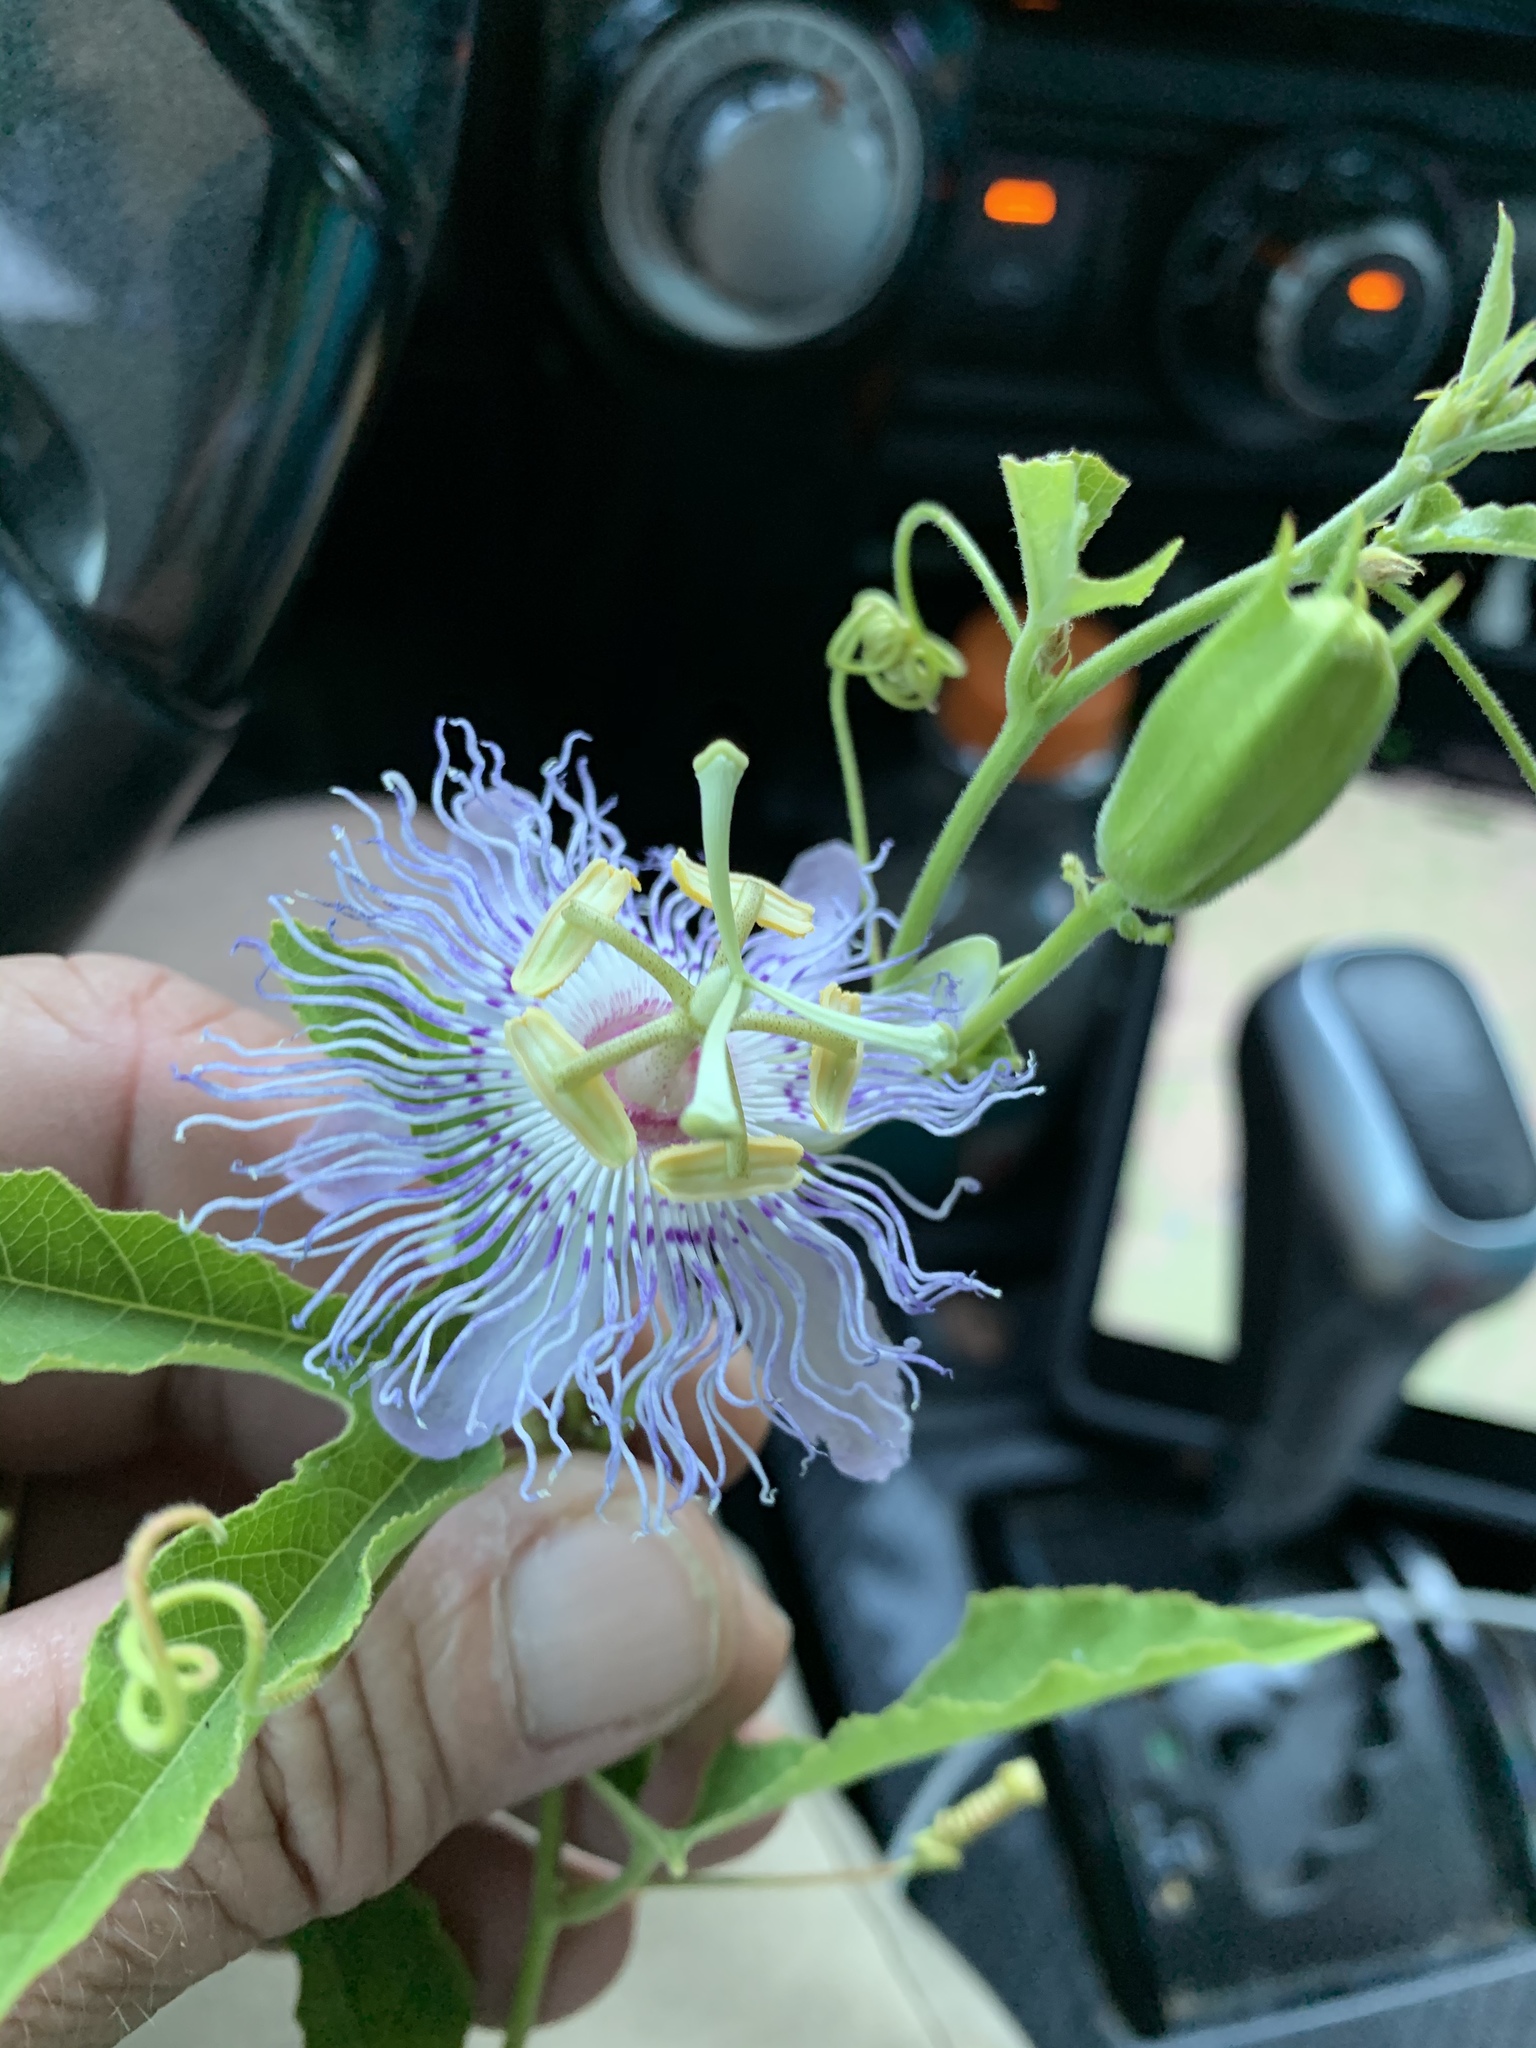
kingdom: Plantae
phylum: Tracheophyta
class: Magnoliopsida
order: Malpighiales
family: Passifloraceae
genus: Passiflora
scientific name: Passiflora incarnata
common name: Apricot-vine
